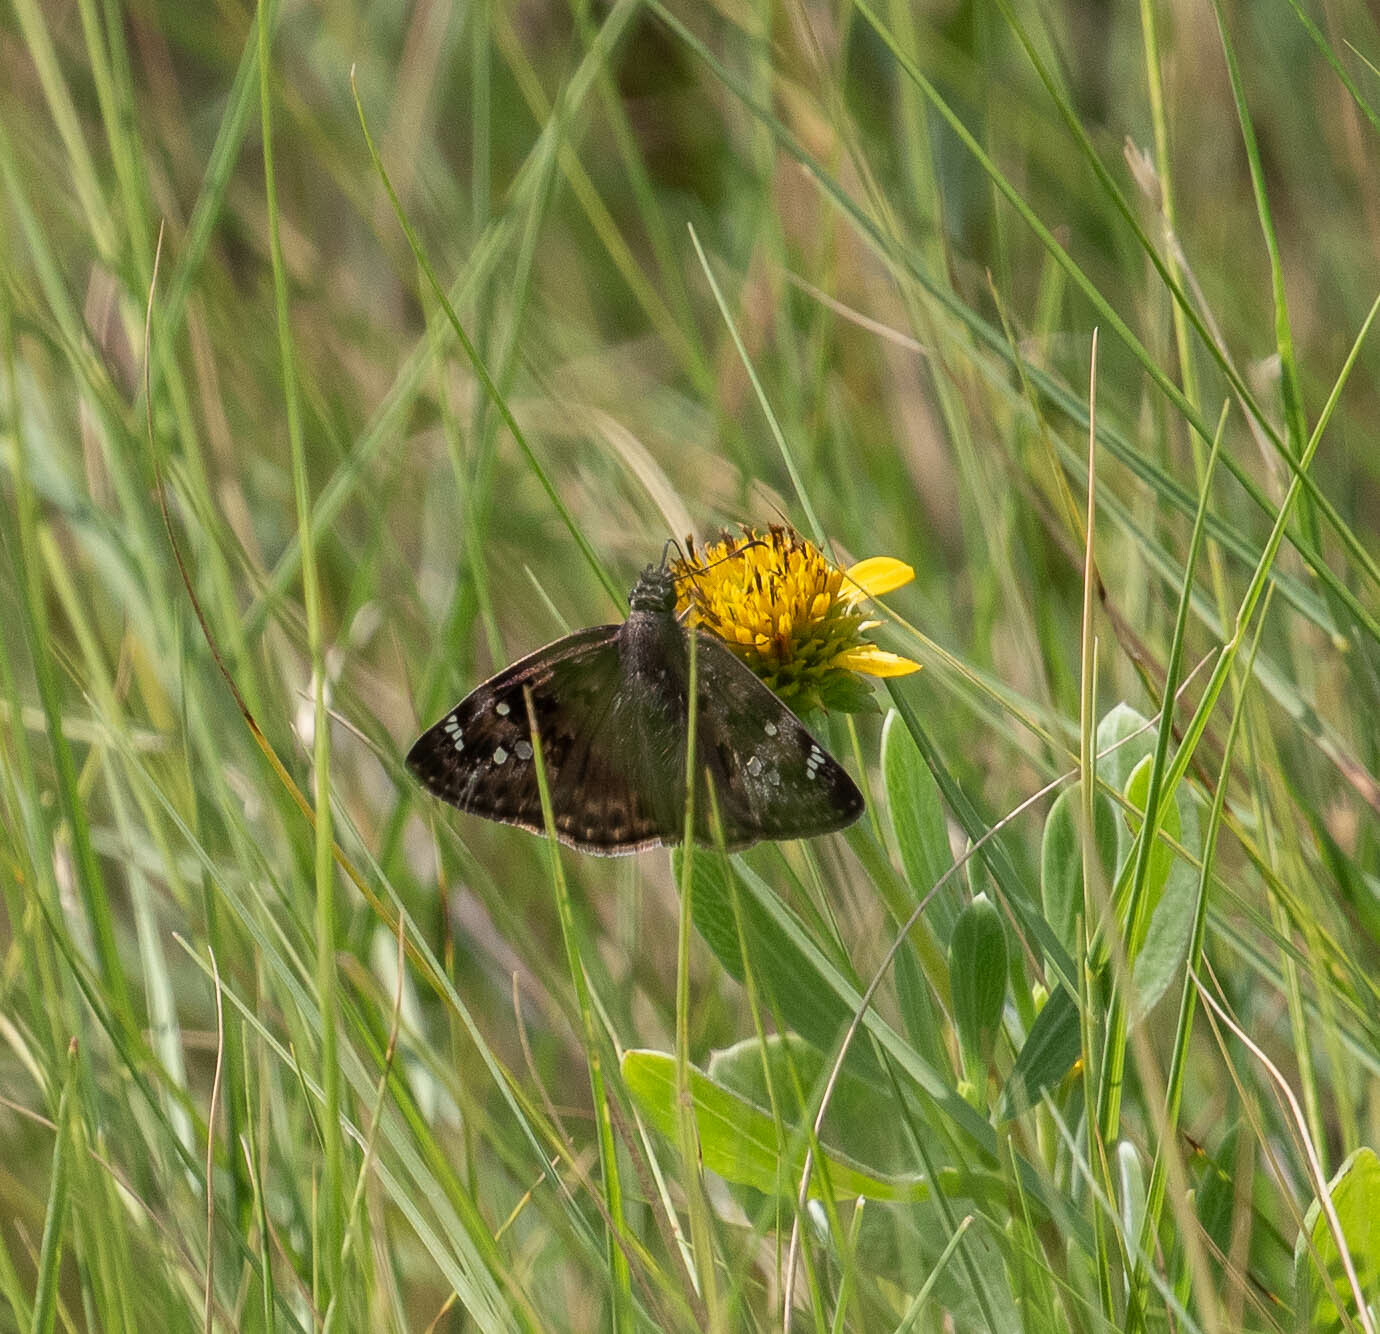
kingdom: Animalia
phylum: Arthropoda
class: Insecta
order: Lepidoptera
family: Hesperiidae
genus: Erynnis
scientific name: Erynnis horatius
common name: Horace's duskywing
